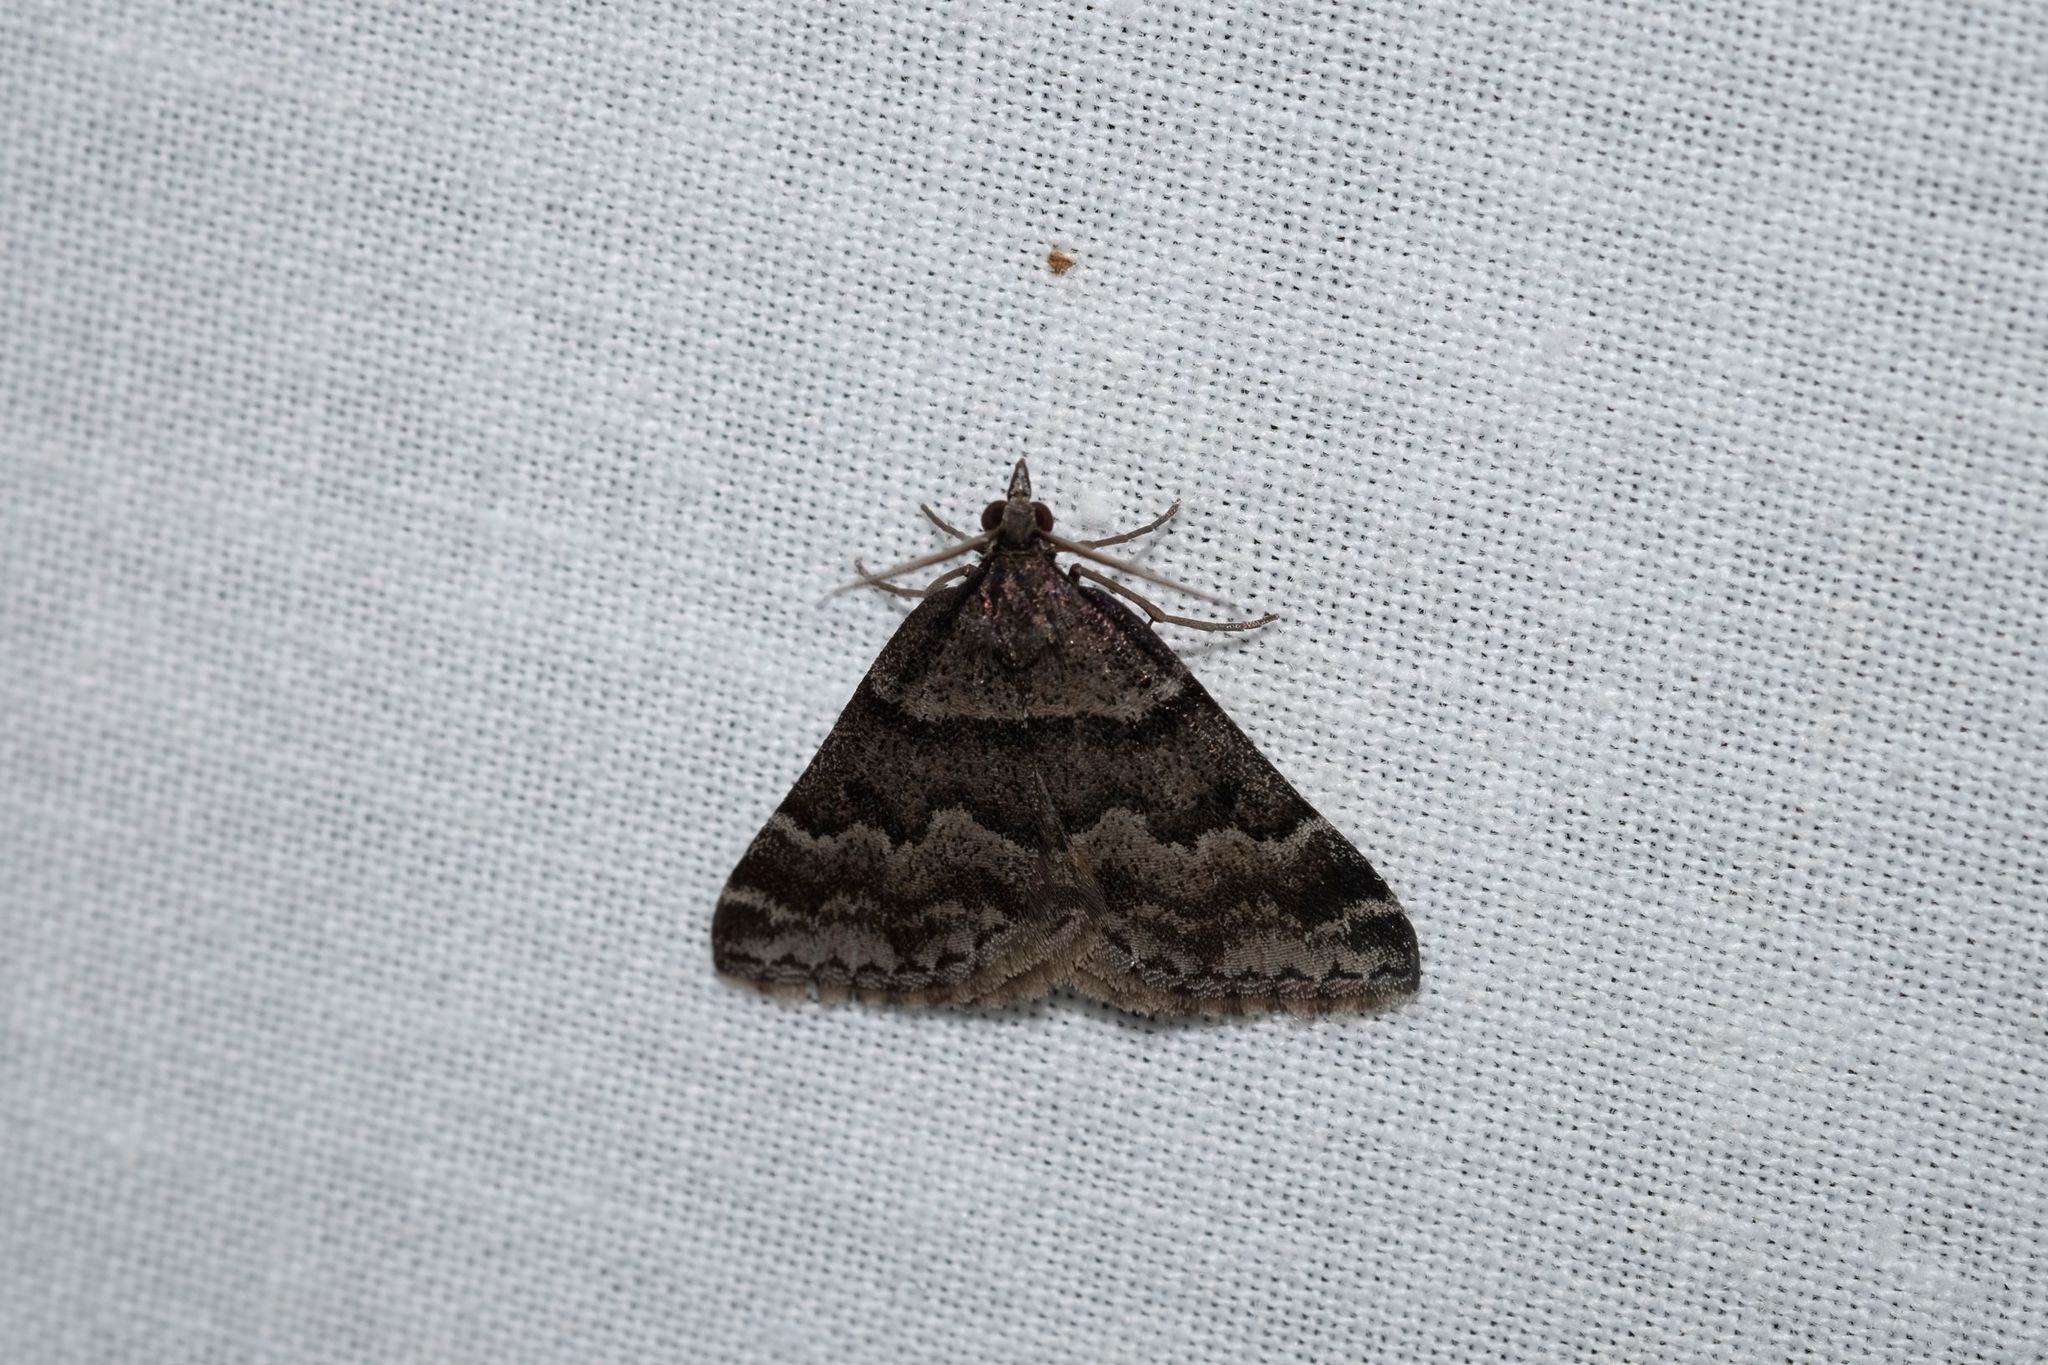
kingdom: Animalia
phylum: Arthropoda
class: Insecta
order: Lepidoptera
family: Geometridae
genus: Dichromodes
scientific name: Dichromodes ainaria
